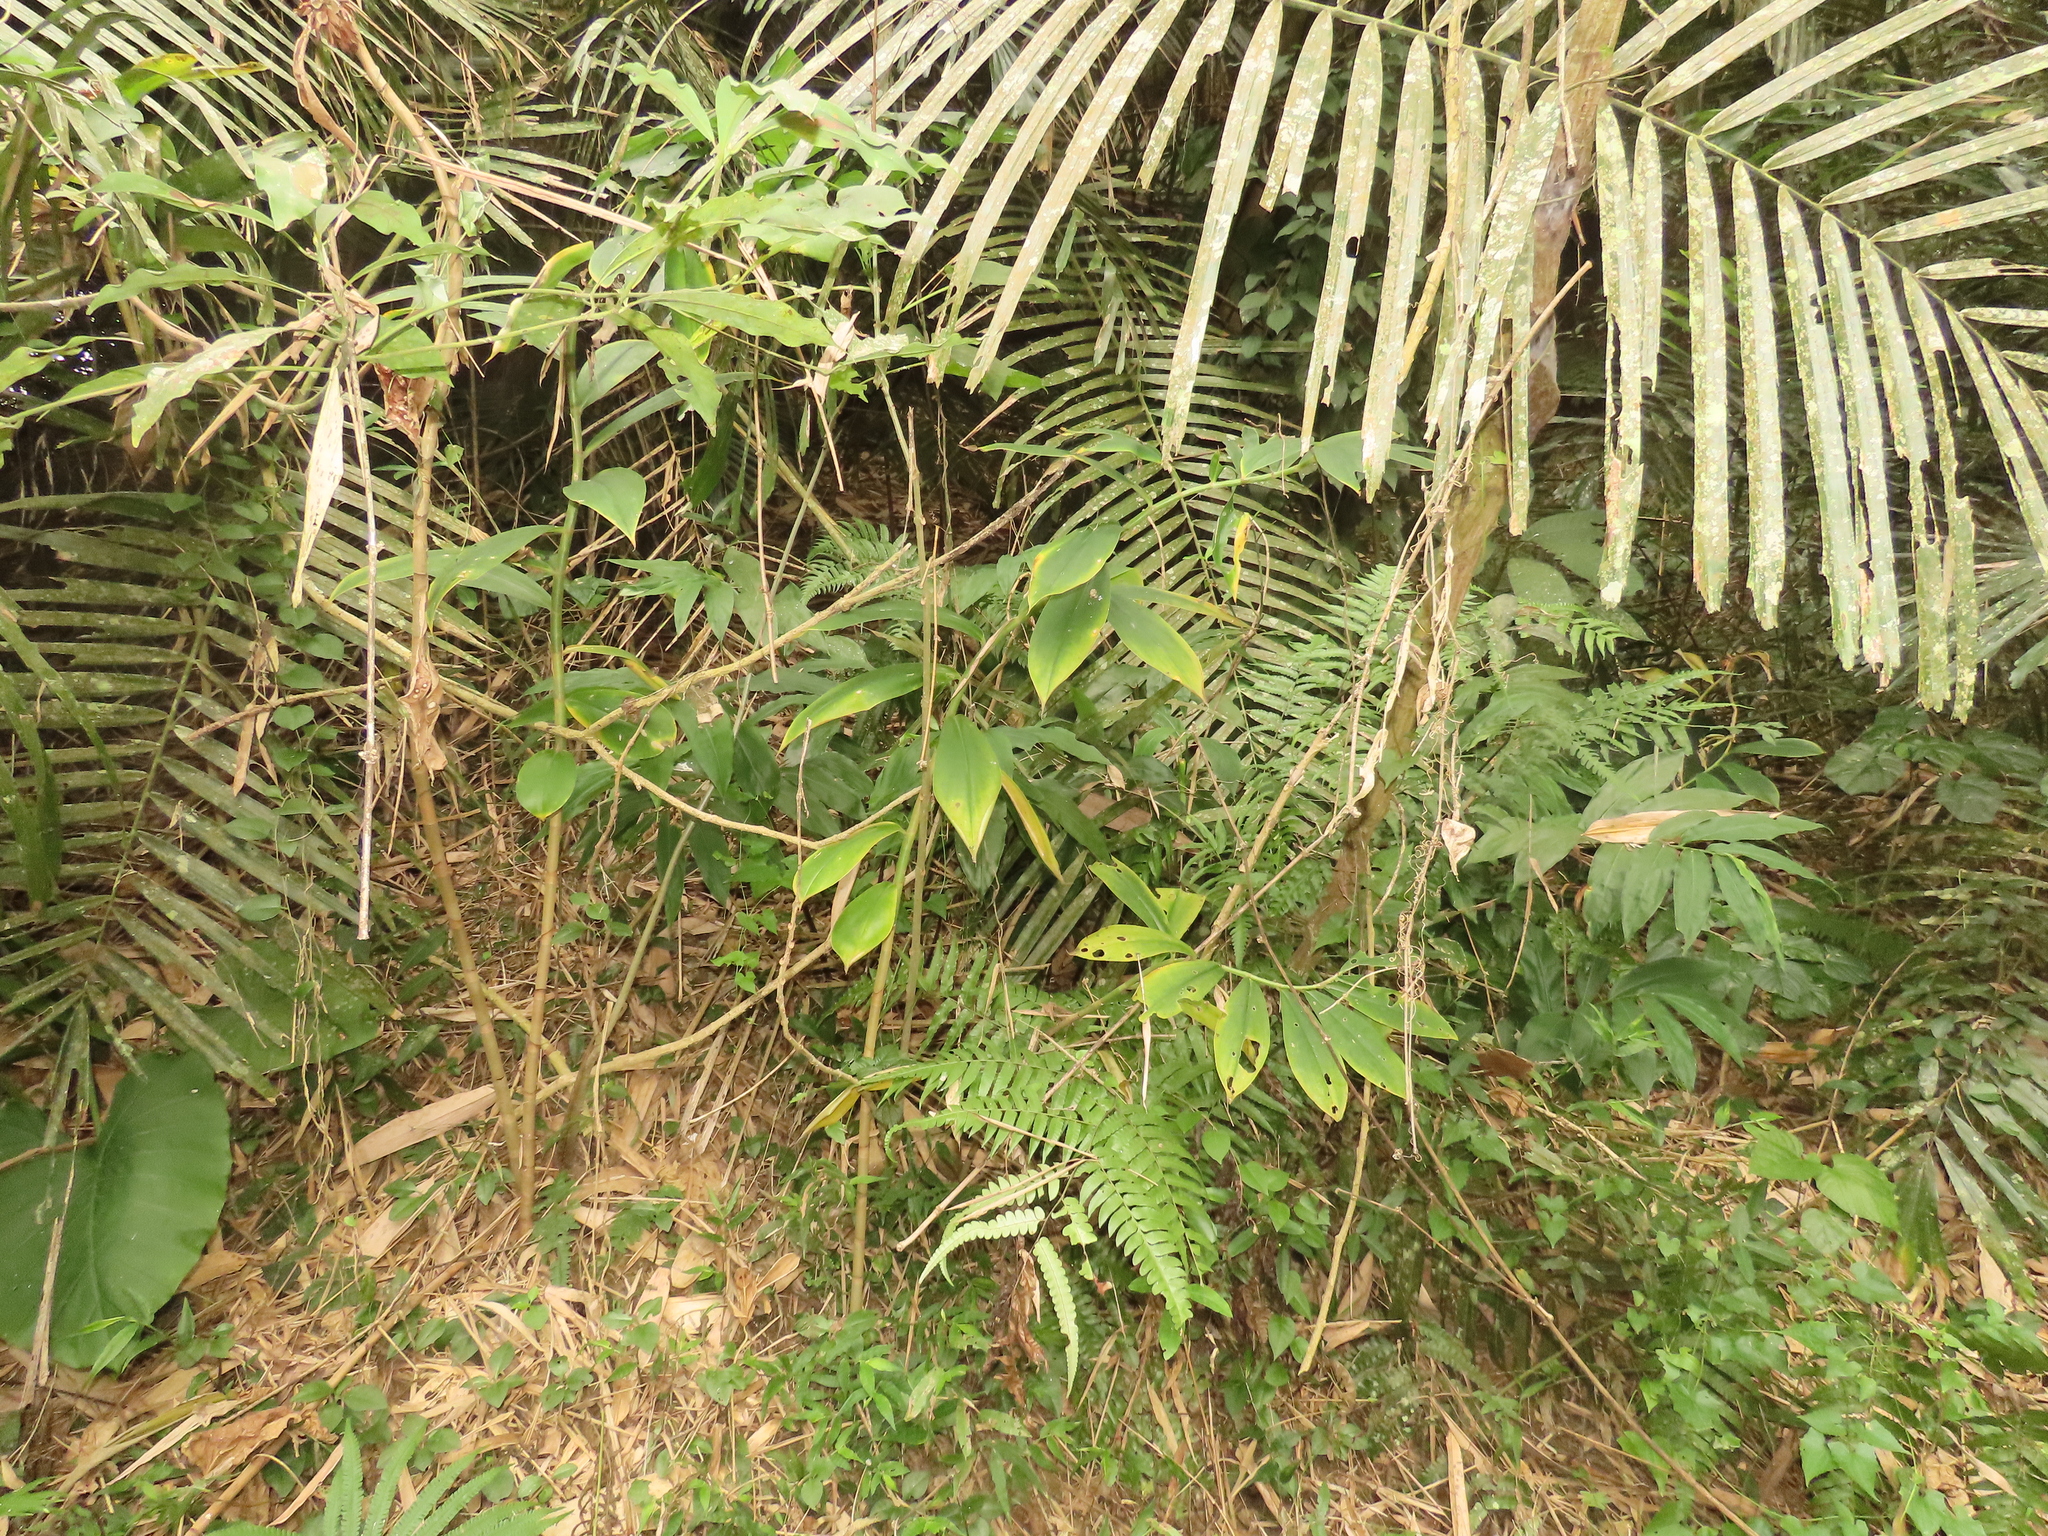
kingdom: Plantae
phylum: Tracheophyta
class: Liliopsida
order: Zingiberales
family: Costaceae
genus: Hellenia
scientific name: Hellenia speciosa
